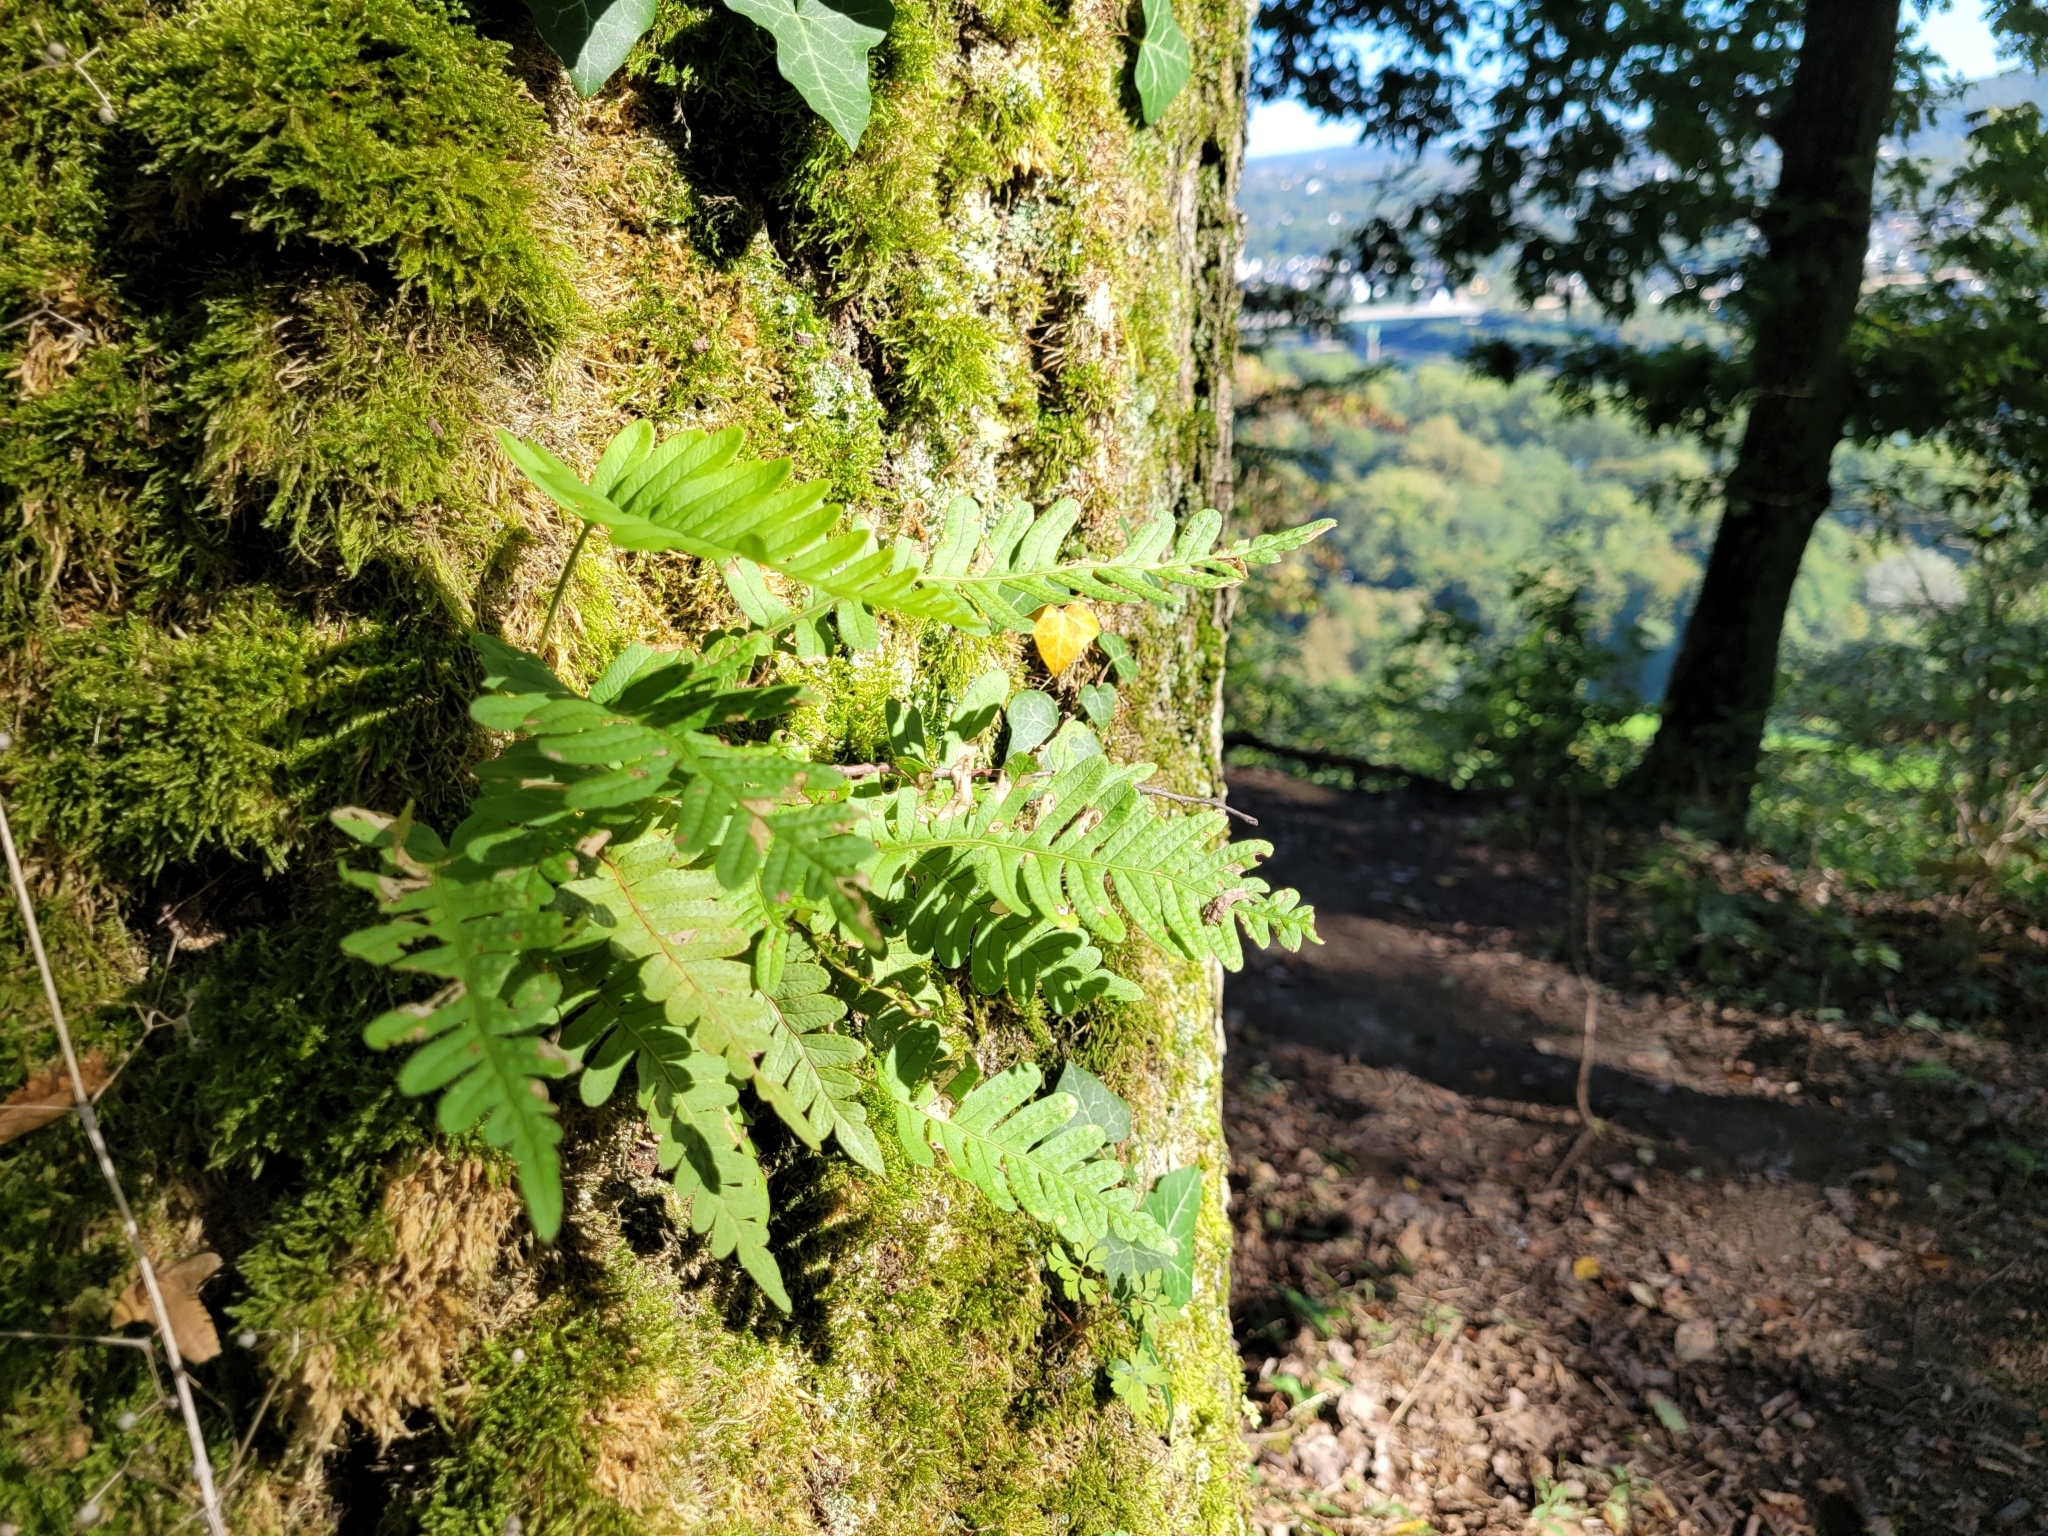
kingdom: Plantae
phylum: Tracheophyta
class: Polypodiopsida
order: Polypodiales
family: Polypodiaceae
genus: Polypodium
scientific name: Polypodium vulgare
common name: Common polypody
